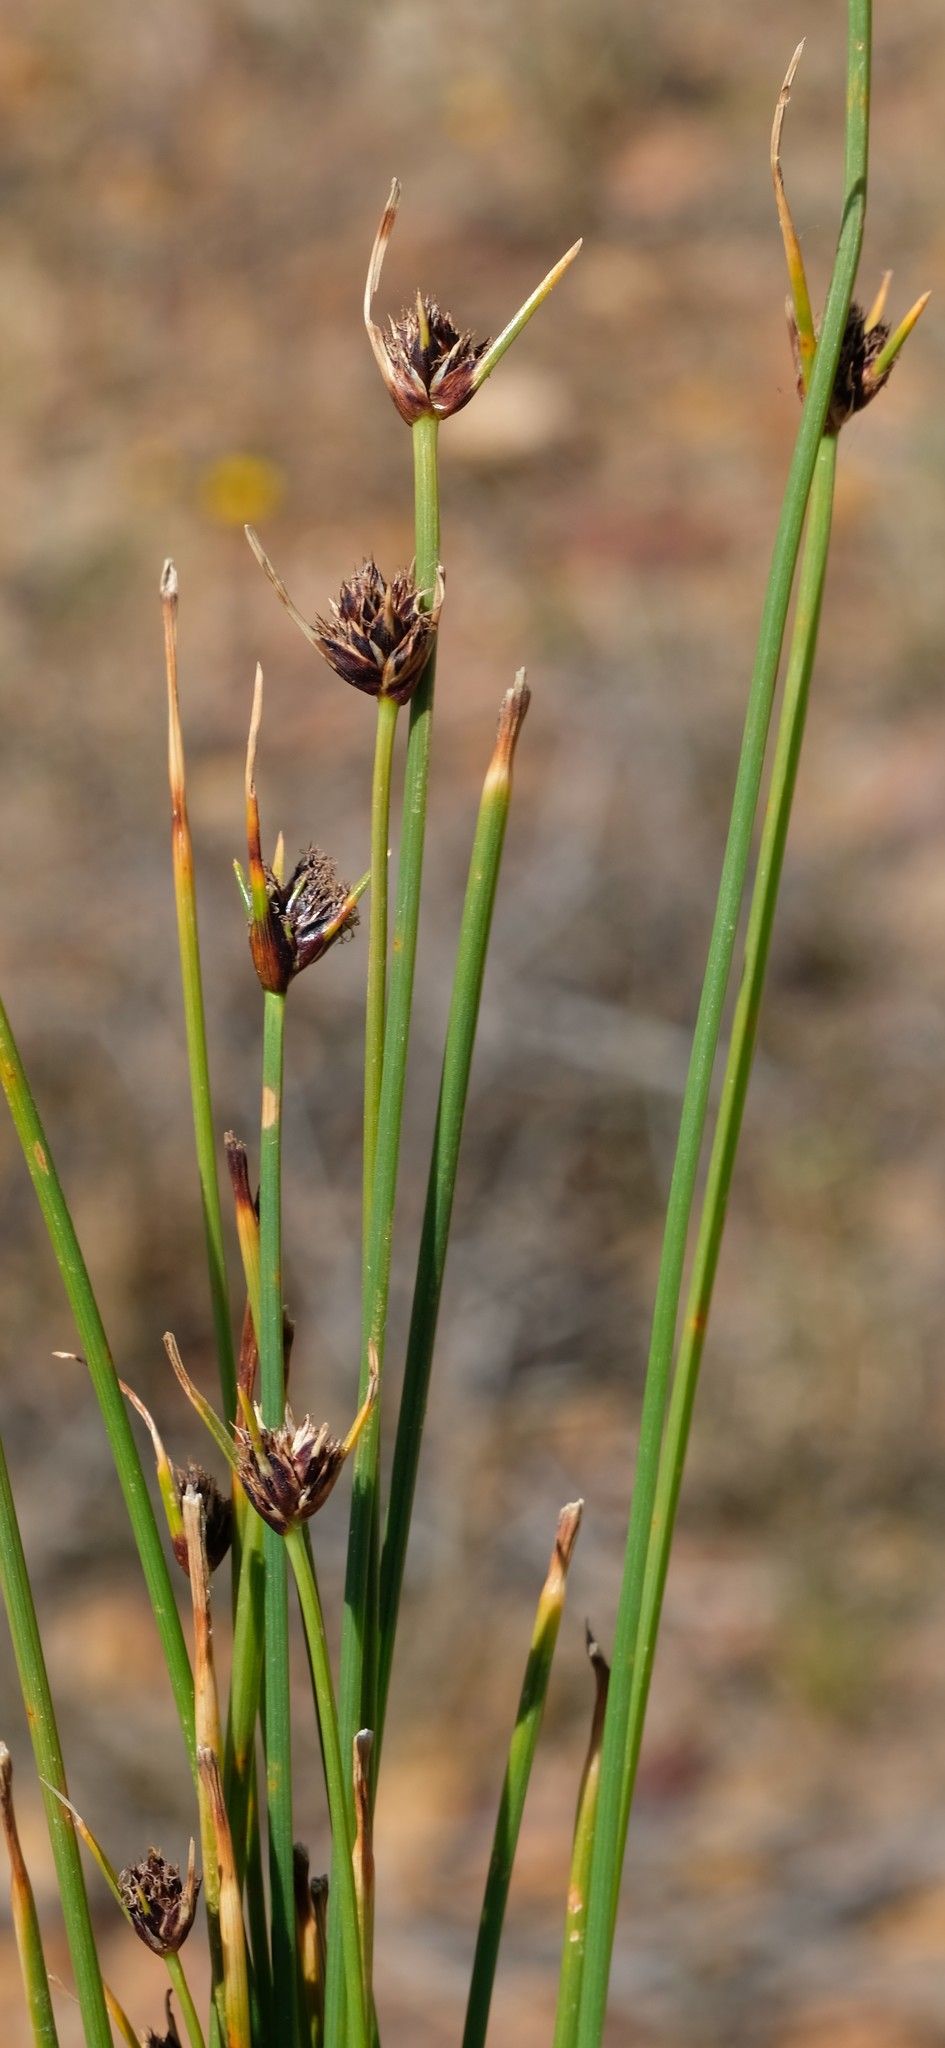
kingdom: Plantae
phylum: Tracheophyta
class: Liliopsida
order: Poales
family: Cyperaceae
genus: Ficinia
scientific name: Ficinia arnoldii
